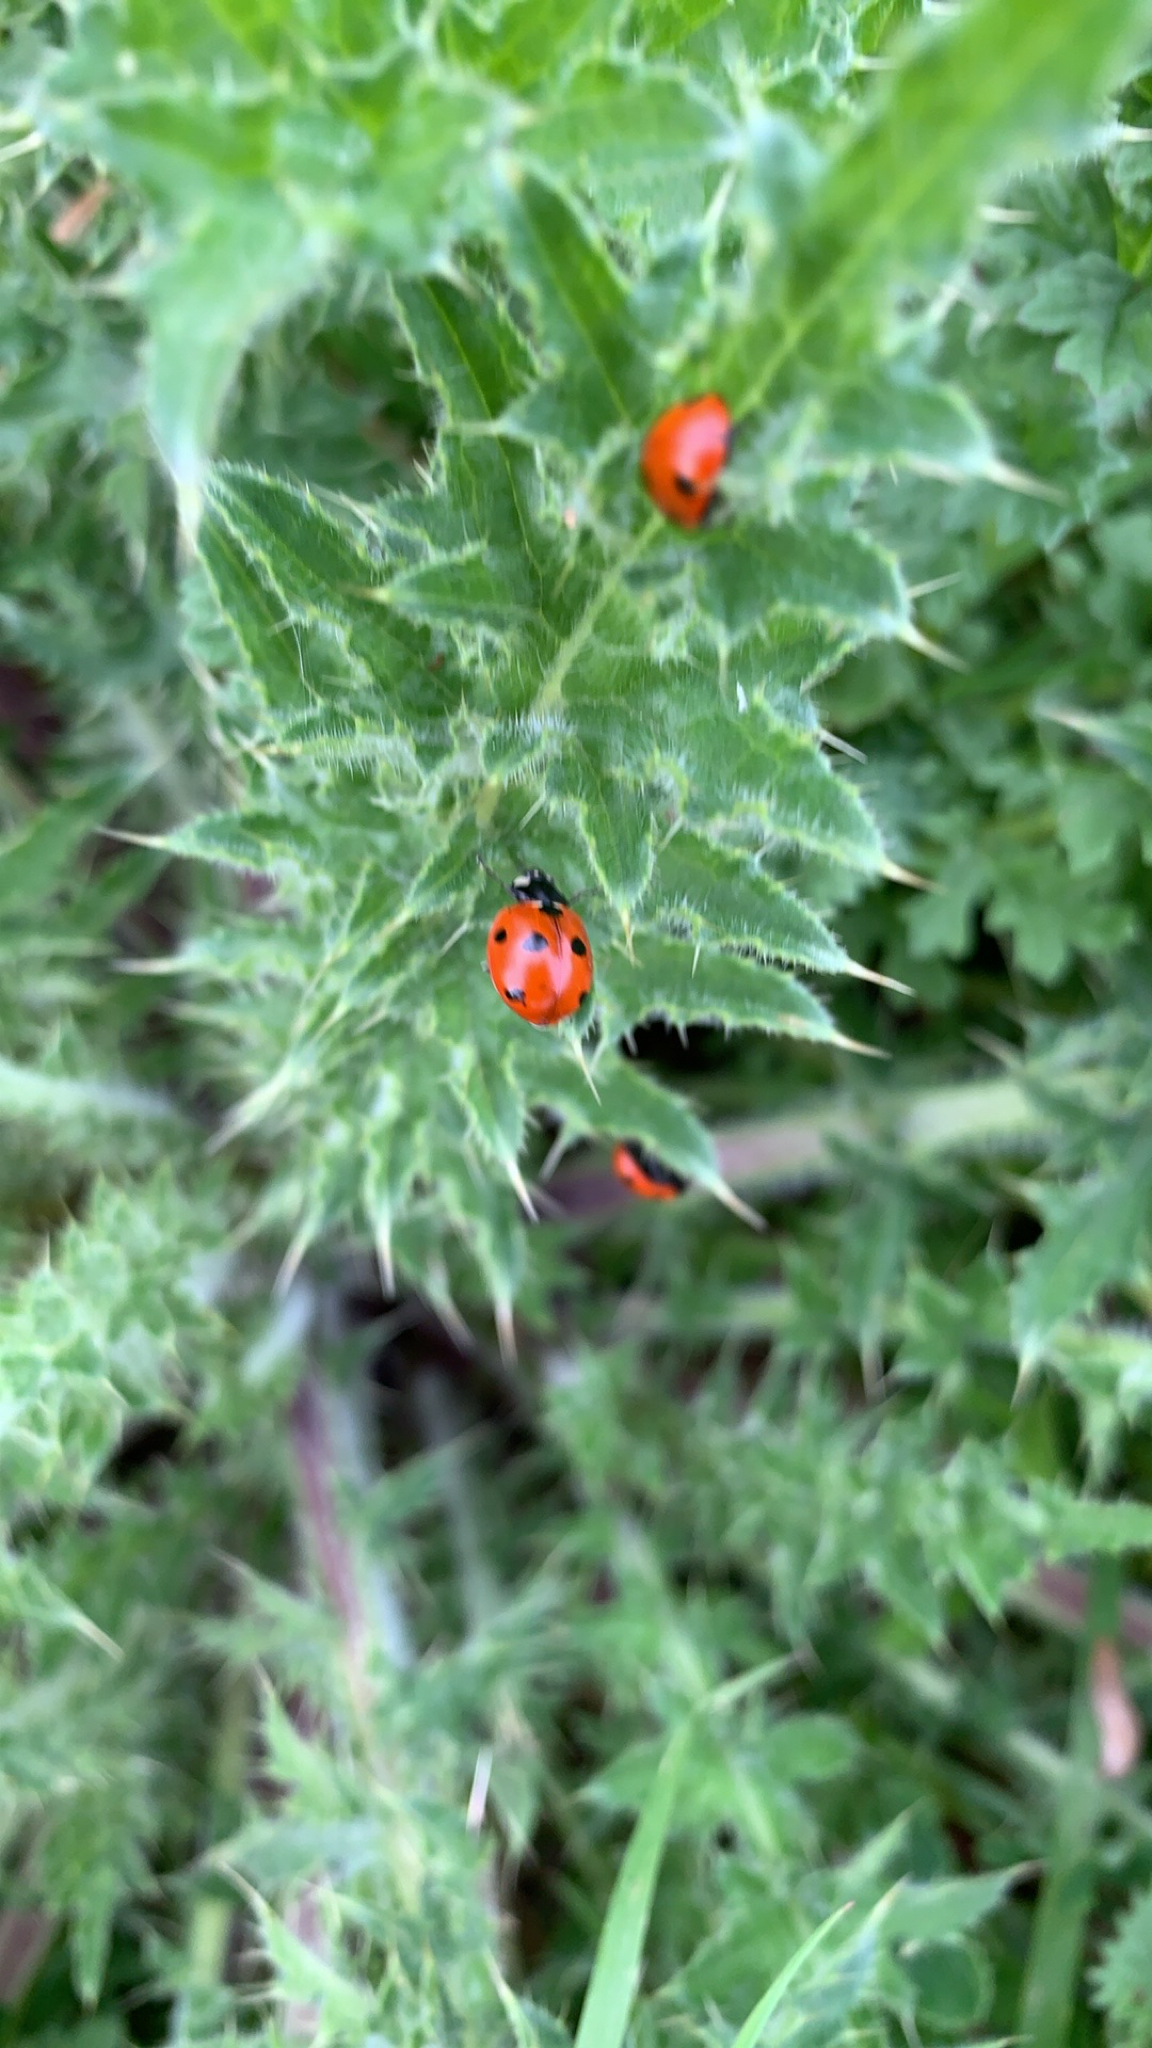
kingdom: Animalia
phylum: Arthropoda
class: Insecta
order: Coleoptera
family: Coccinellidae
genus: Coccinella
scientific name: Coccinella septempunctata
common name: Sevenspotted lady beetle
